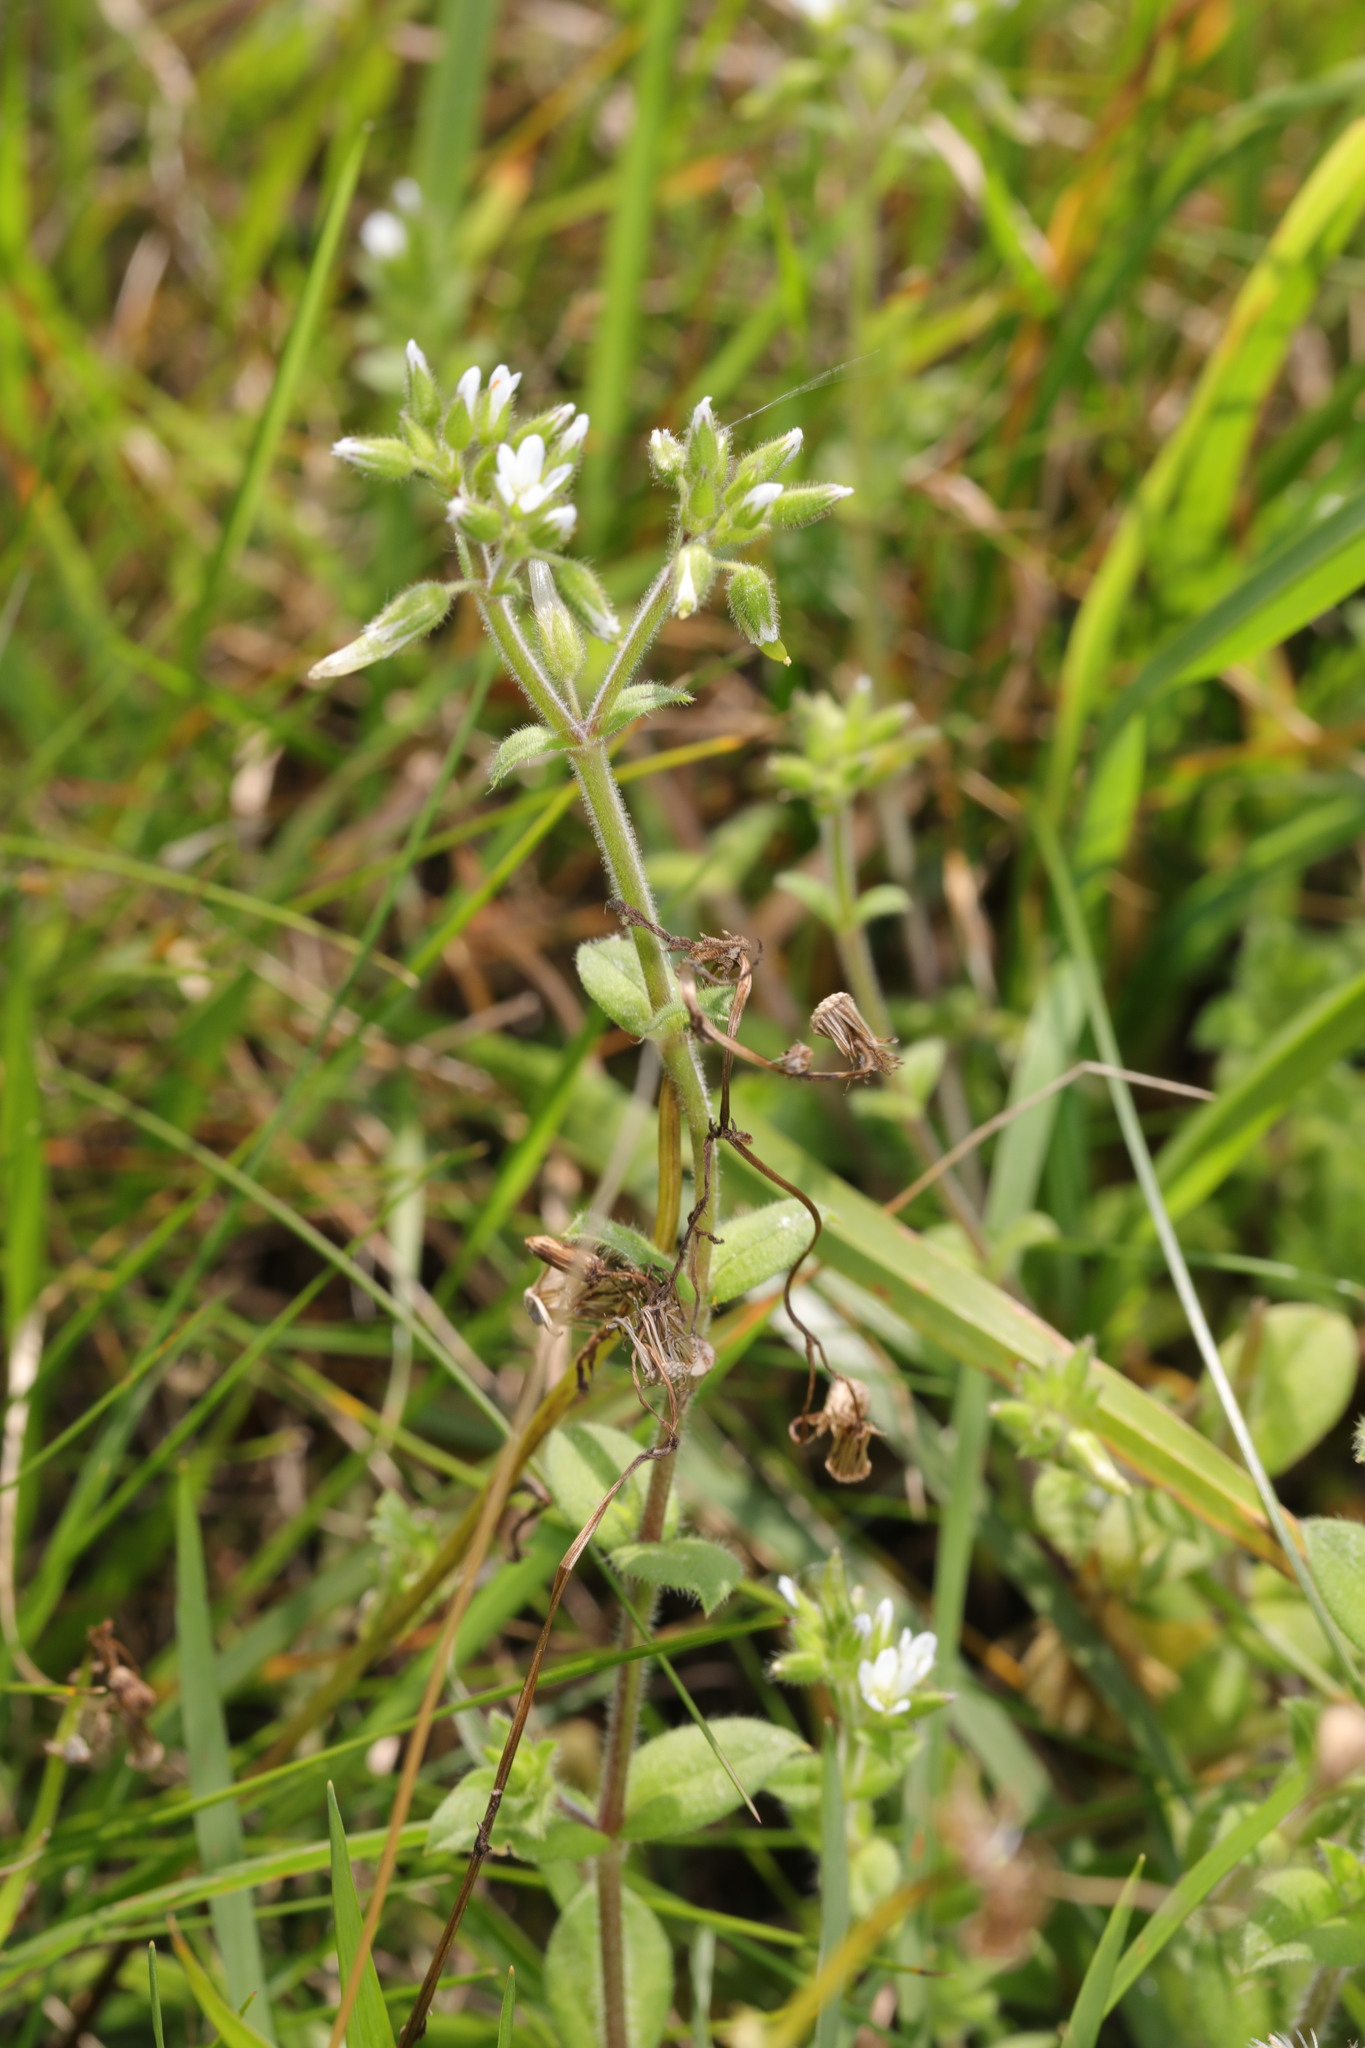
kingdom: Plantae
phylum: Tracheophyta
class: Magnoliopsida
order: Caryophyllales
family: Caryophyllaceae
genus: Cerastium
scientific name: Cerastium glomeratum
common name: Sticky chickweed
